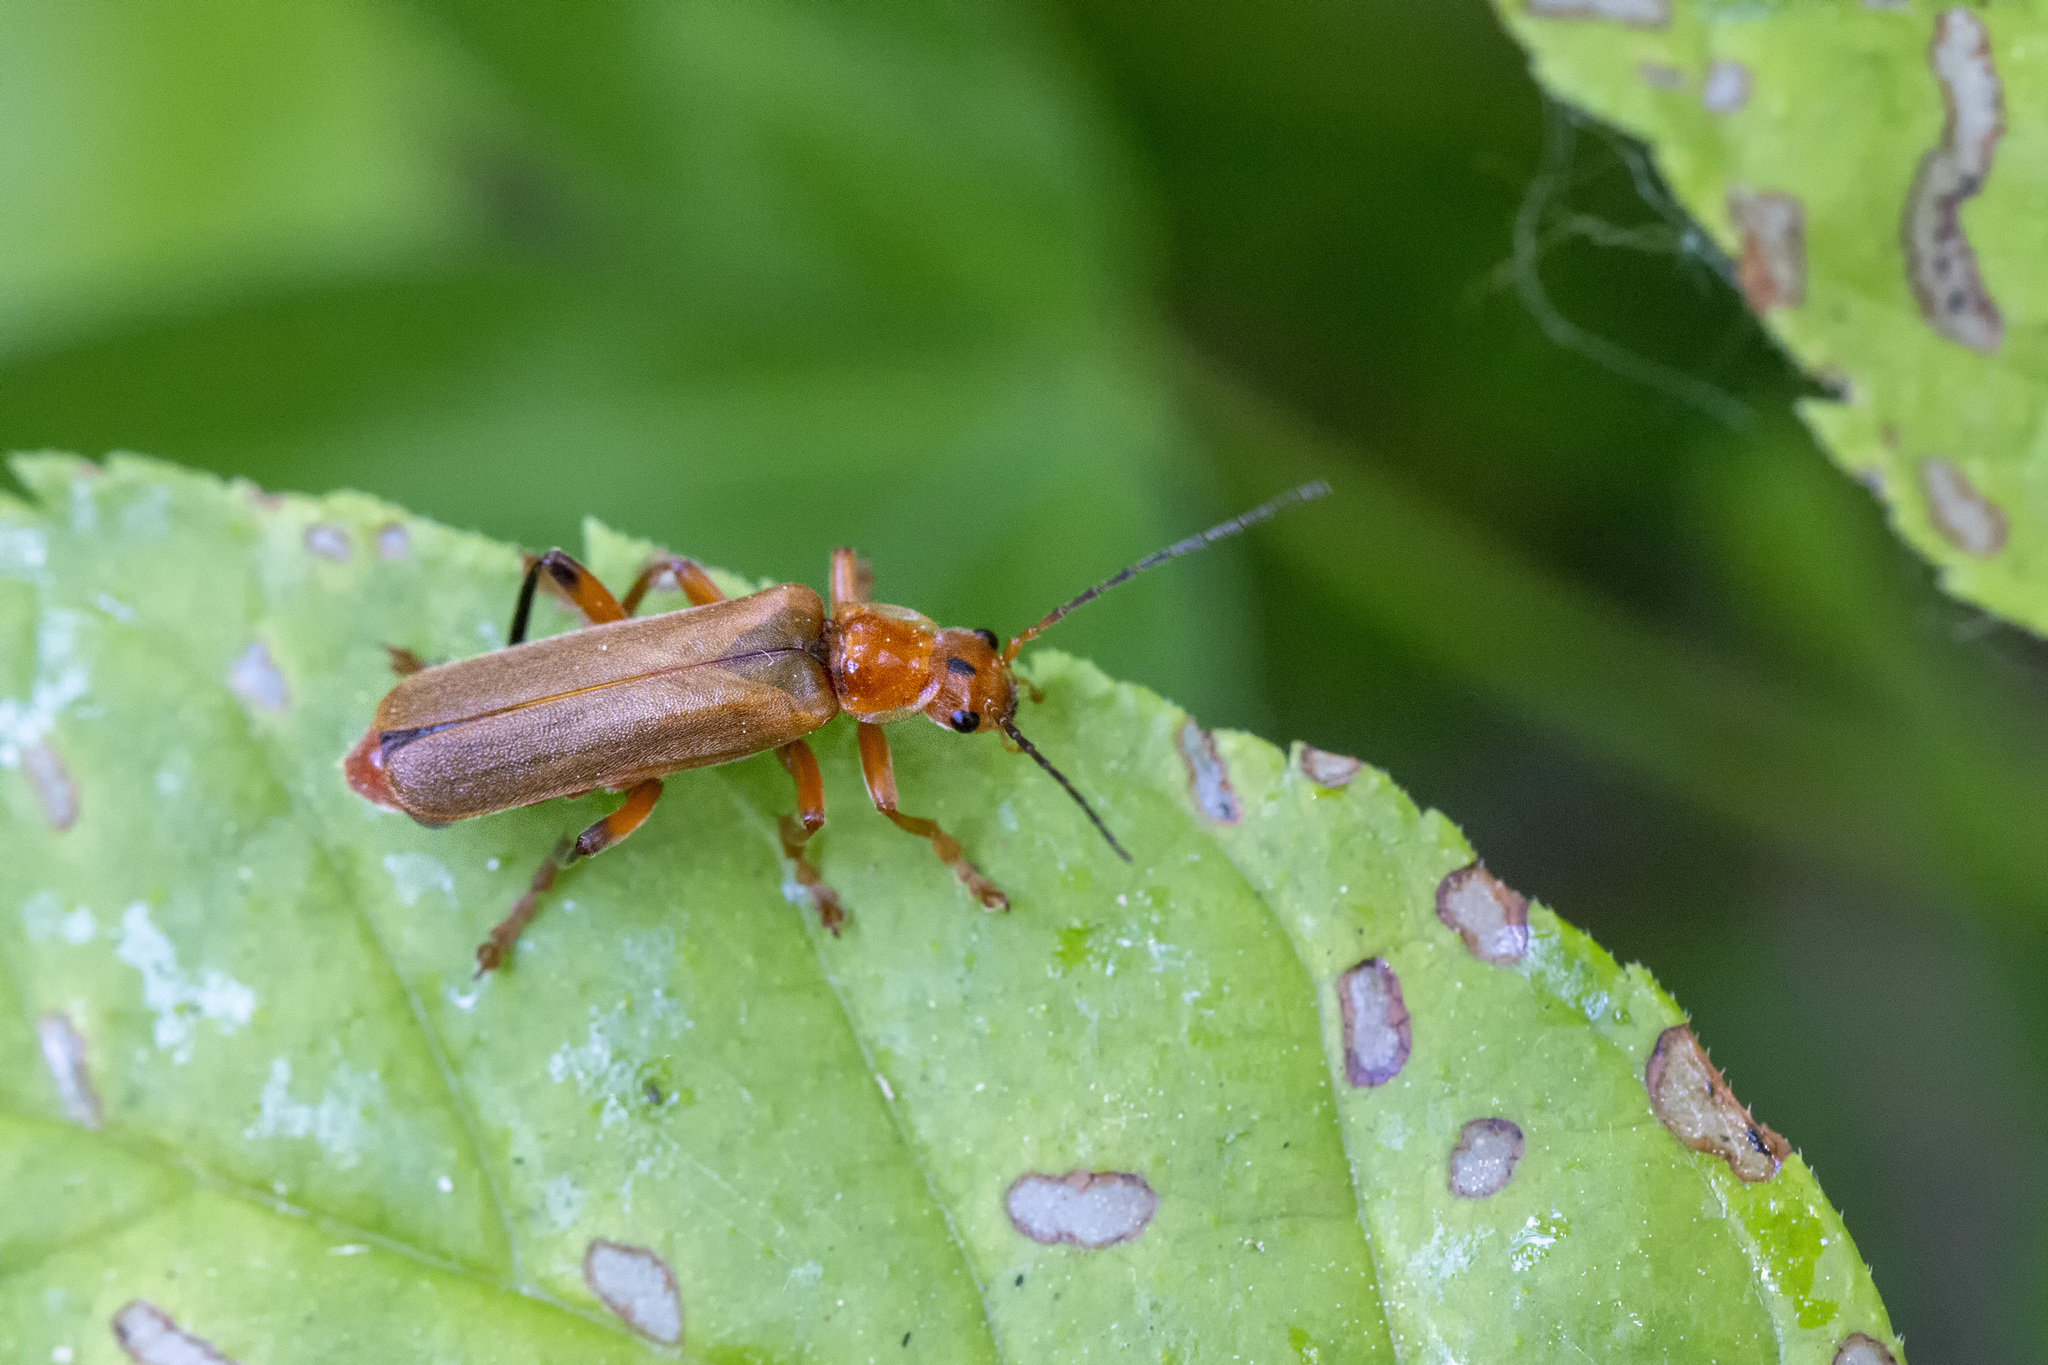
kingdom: Animalia
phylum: Arthropoda
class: Insecta
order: Coleoptera
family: Cantharidae
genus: Cantharis
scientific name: Cantharis livida
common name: Livid soldier beetle
